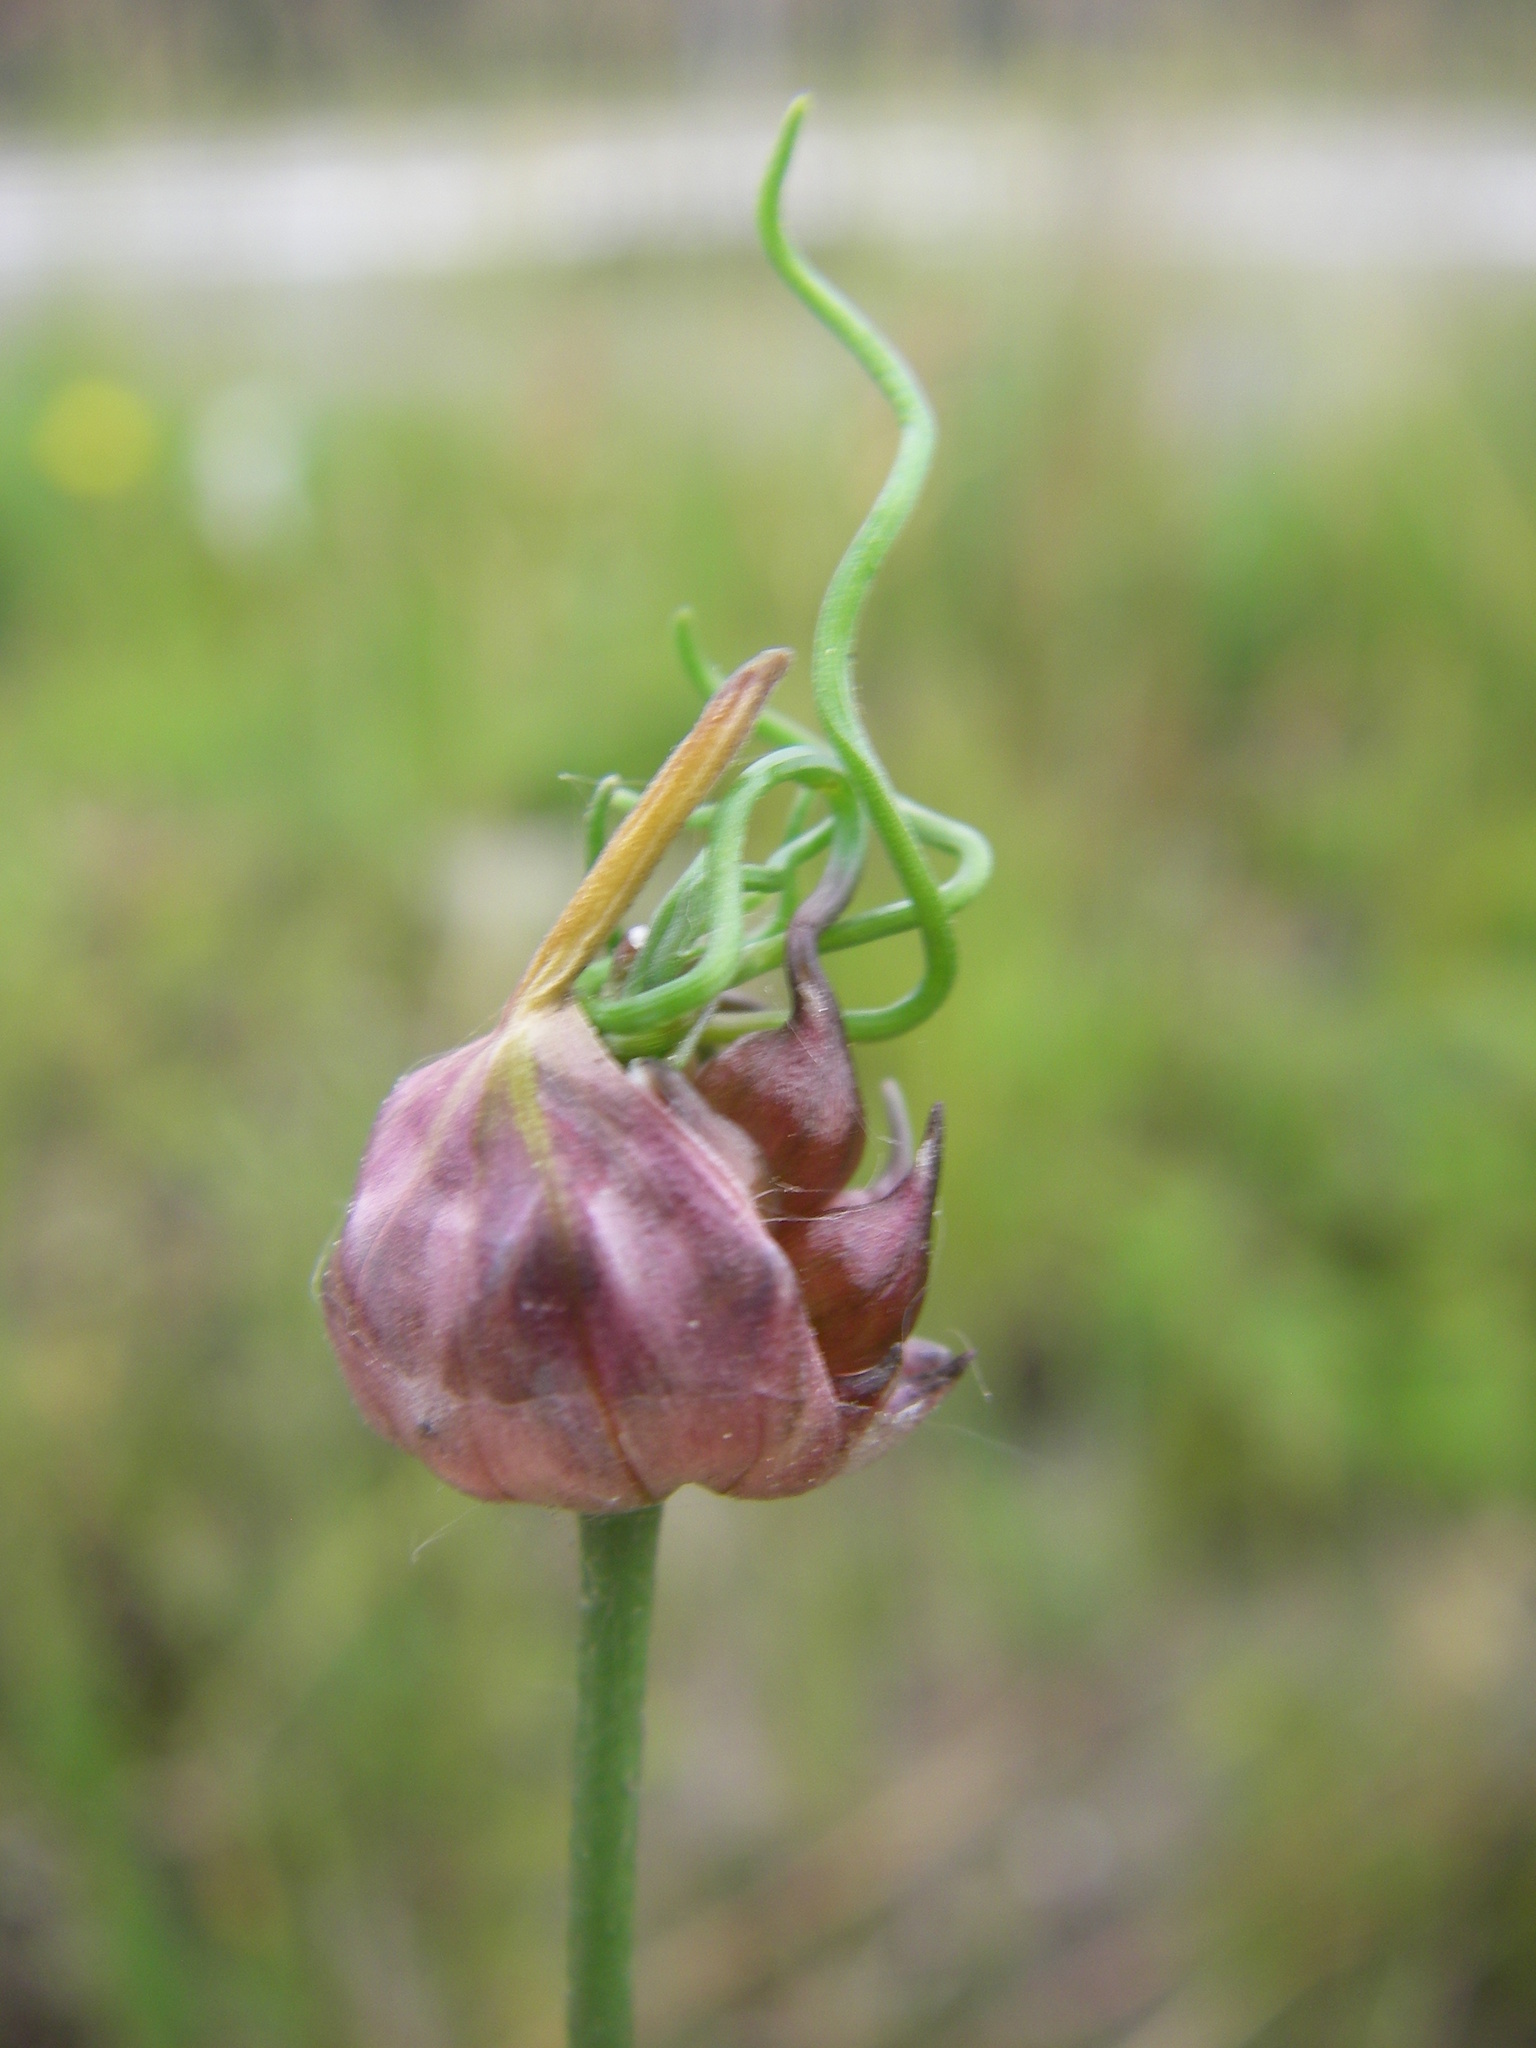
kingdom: Plantae
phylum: Tracheophyta
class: Liliopsida
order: Asparagales
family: Amaryllidaceae
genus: Allium
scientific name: Allium vineale
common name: Crow garlic
